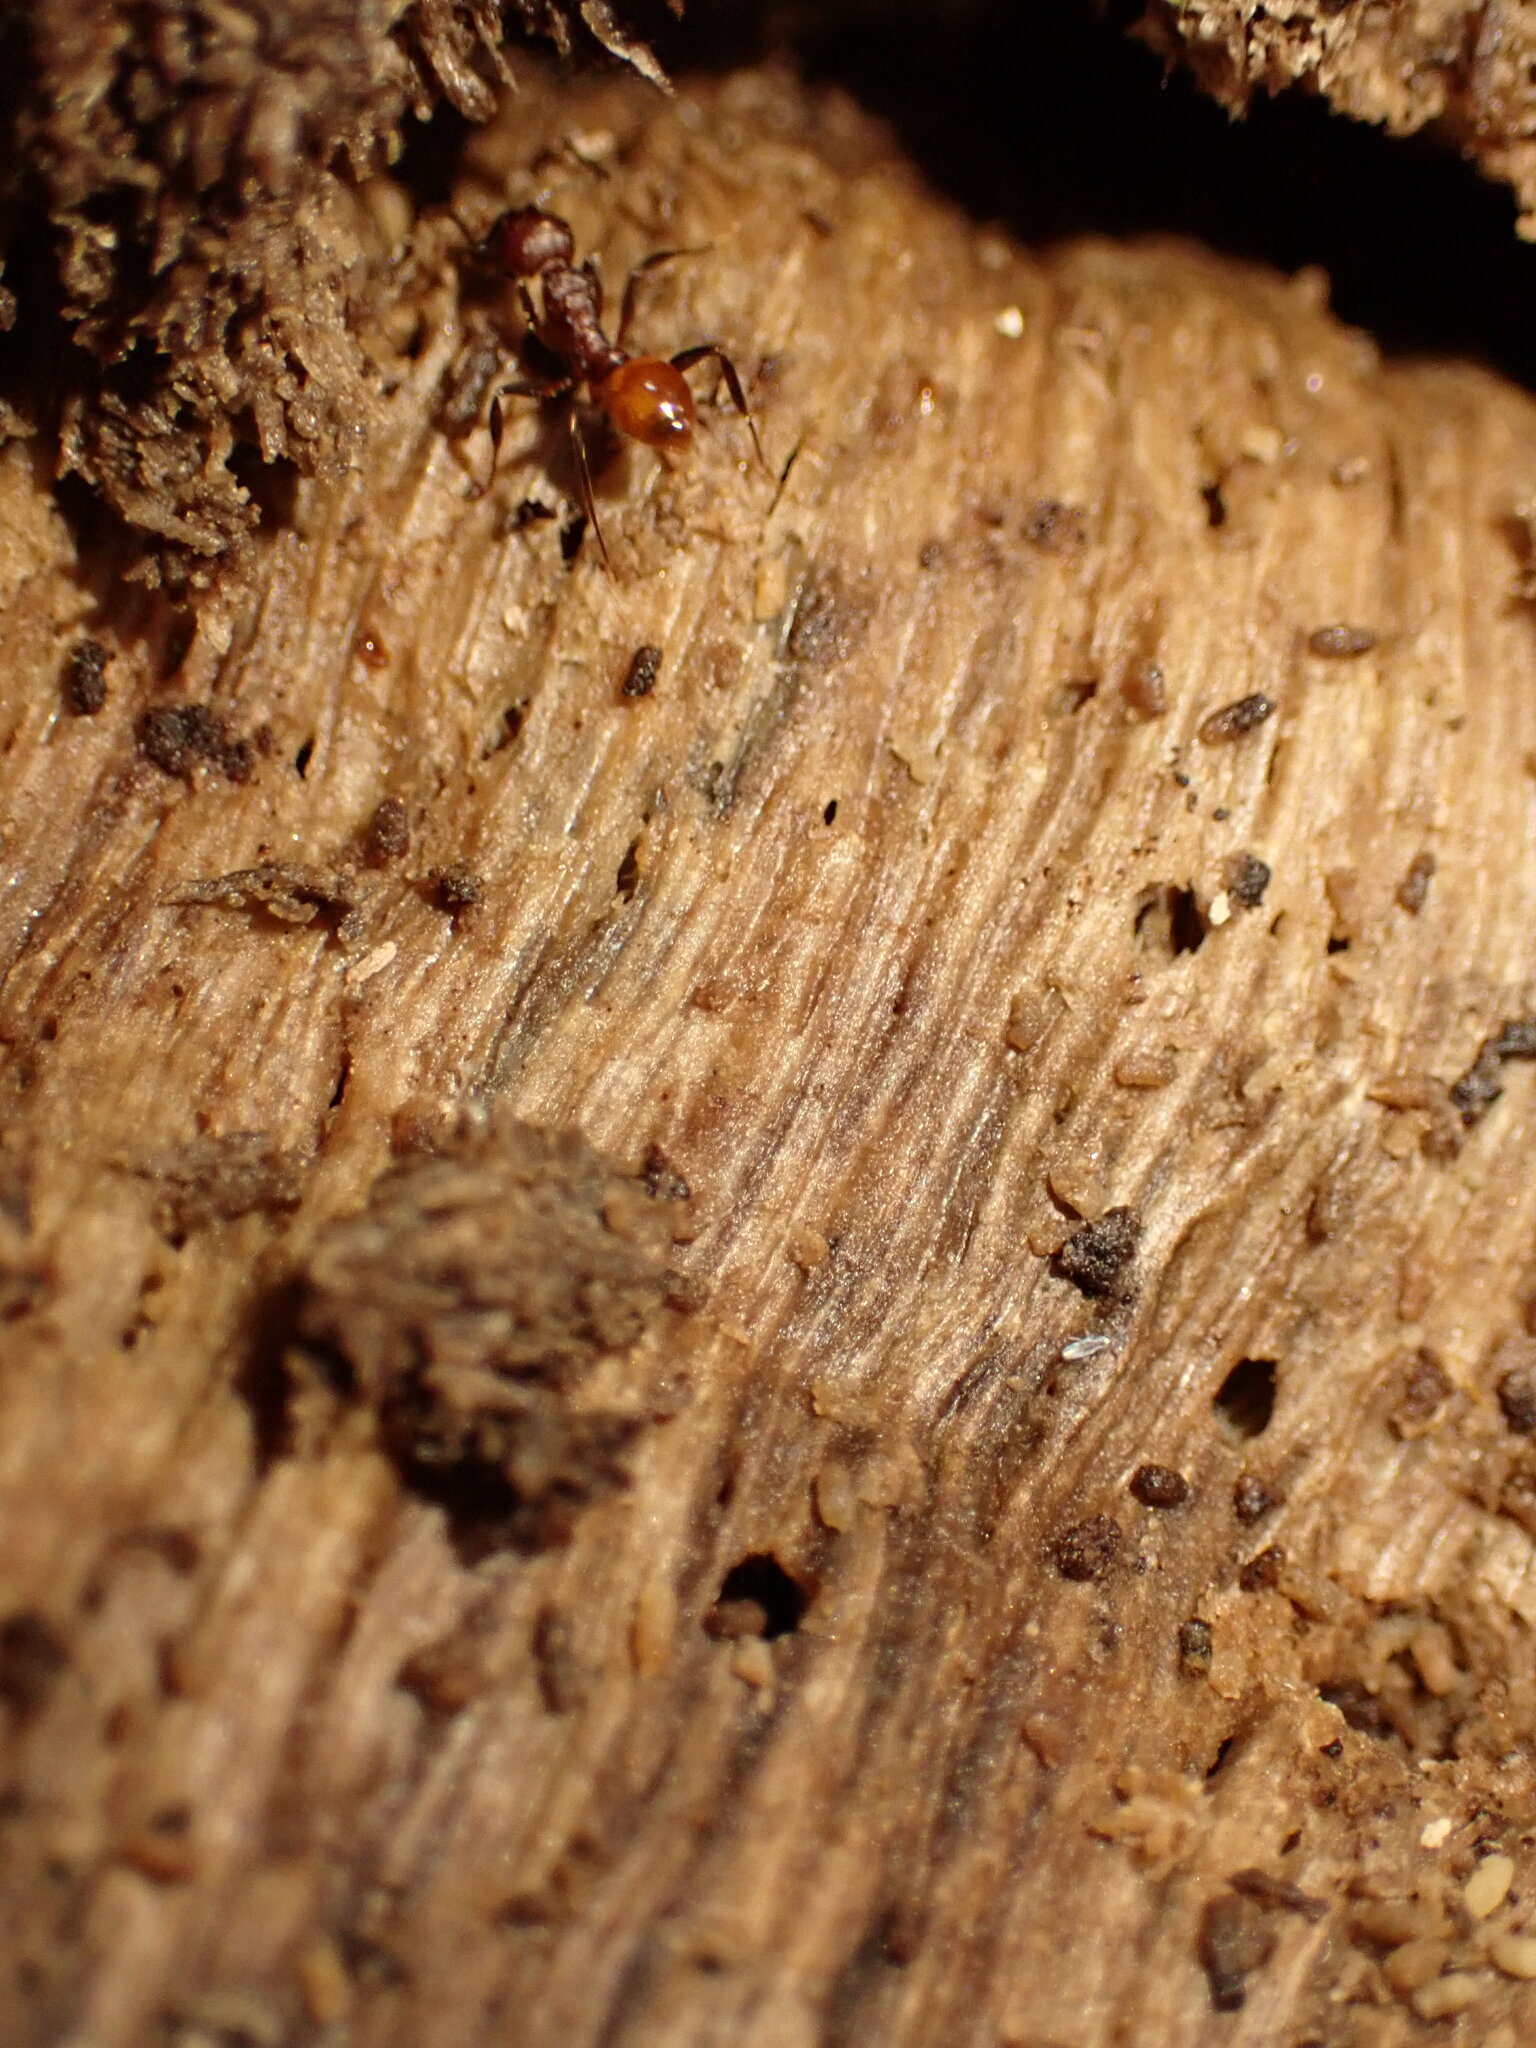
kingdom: Animalia
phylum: Arthropoda
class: Insecta
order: Hymenoptera
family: Formicidae
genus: Aphaenogaster
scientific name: Aphaenogaster tennesseensis
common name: Tennessee thread-waisted ant
